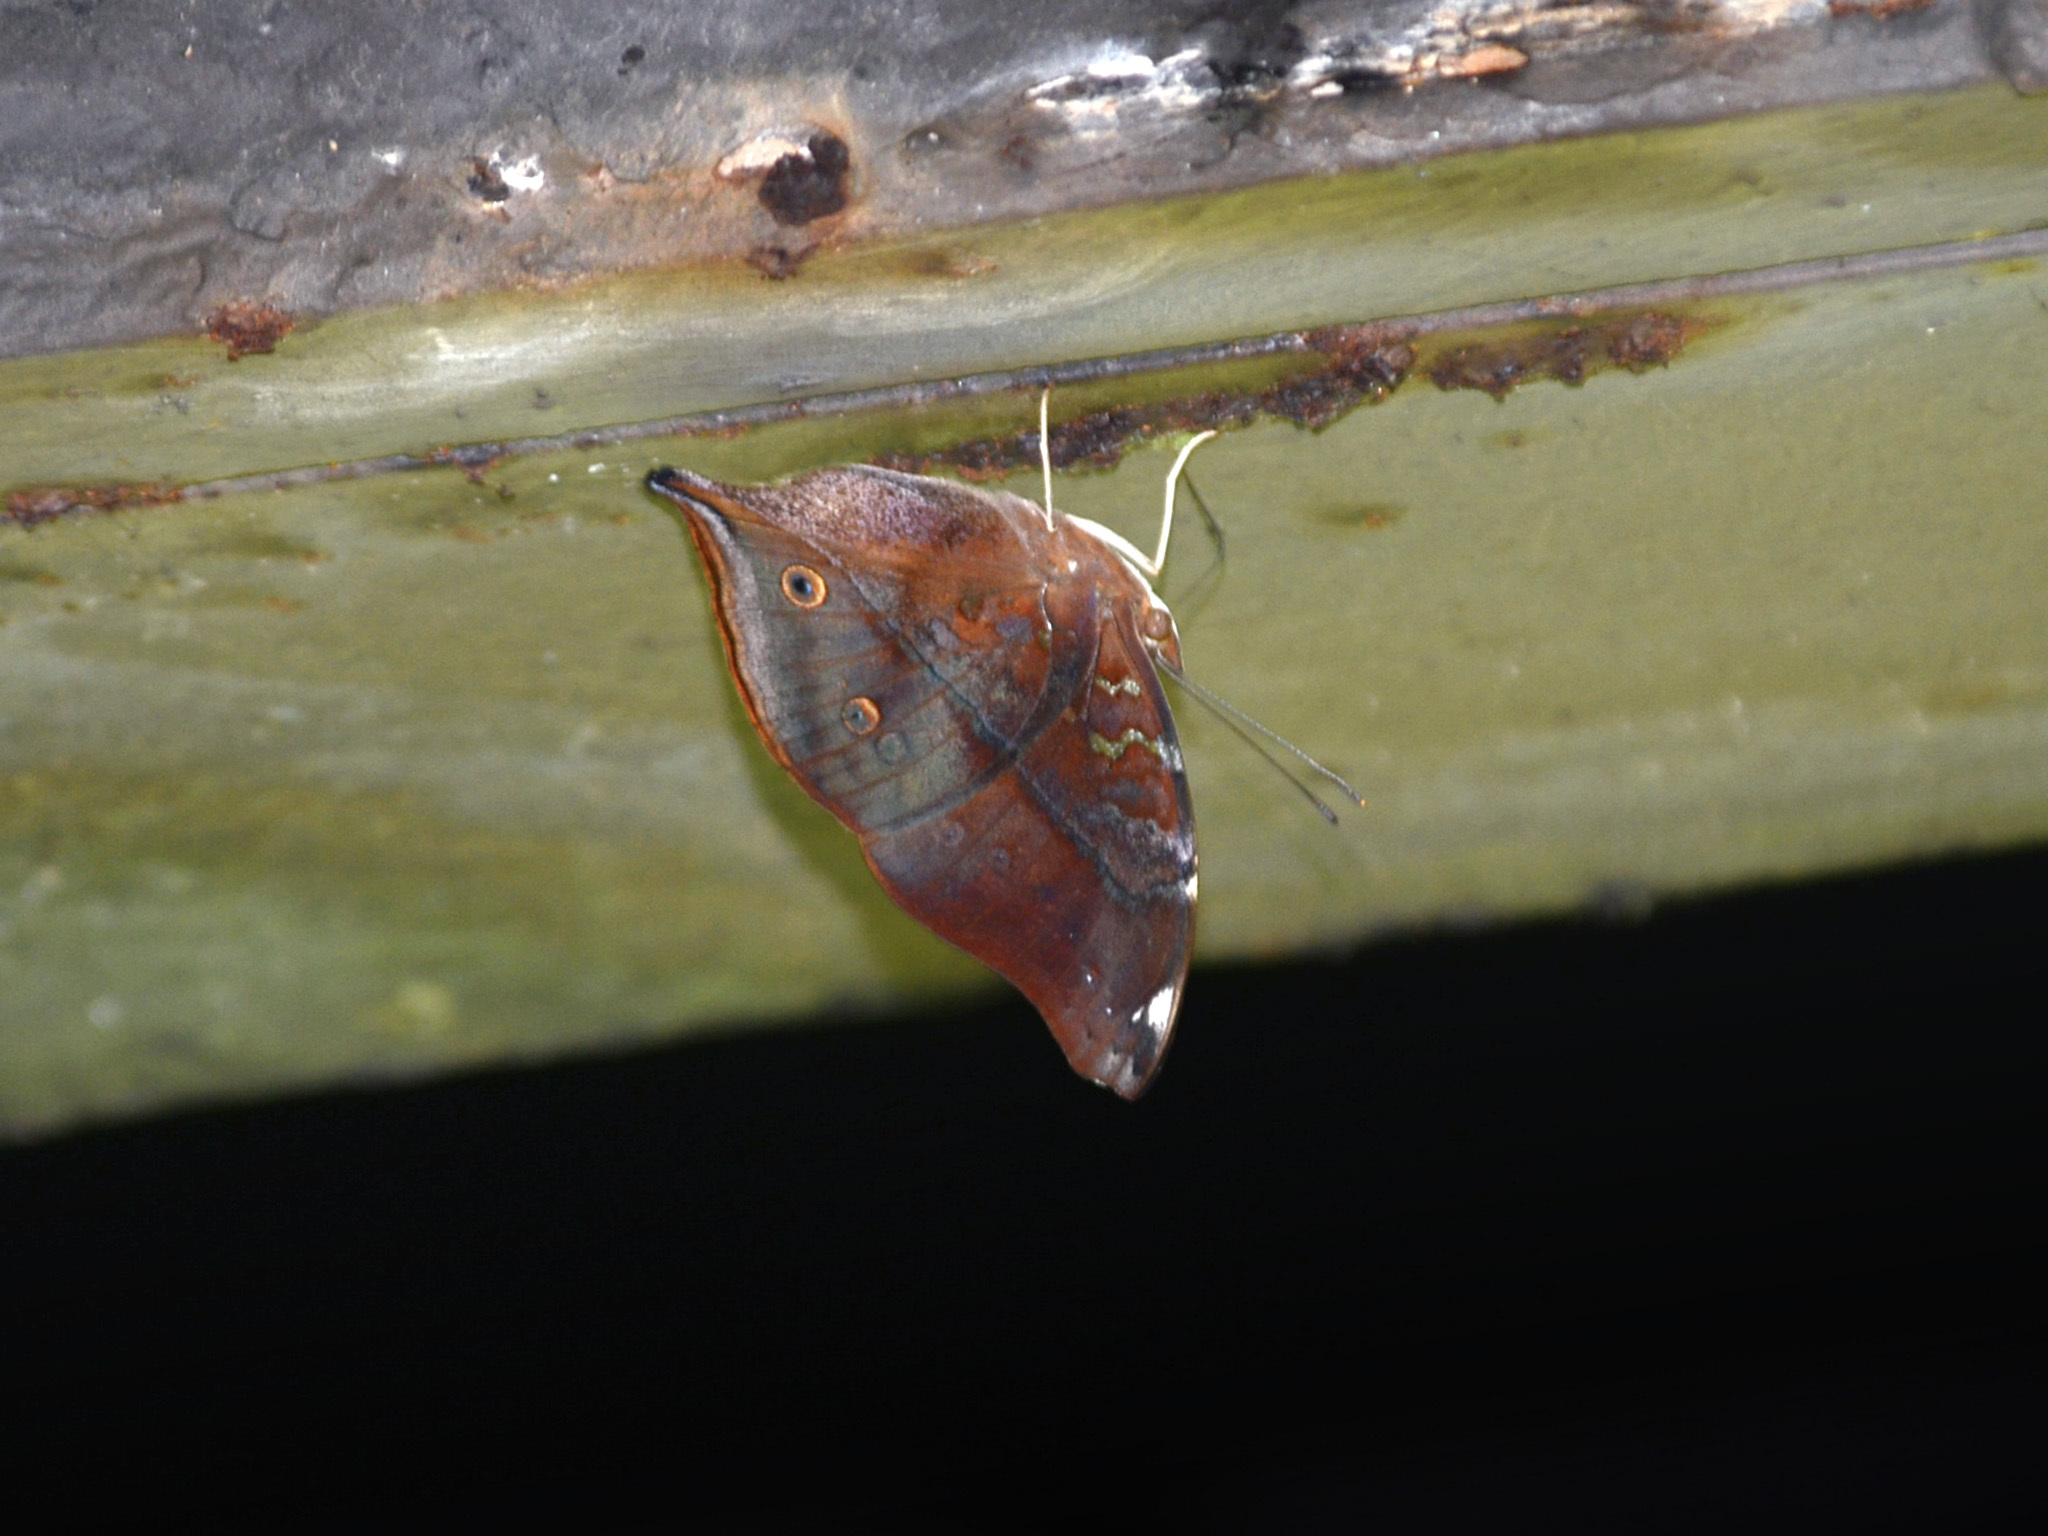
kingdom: Animalia
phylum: Arthropoda
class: Insecta
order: Lepidoptera
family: Nymphalidae
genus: Doleschallia
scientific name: Doleschallia bisaltide
